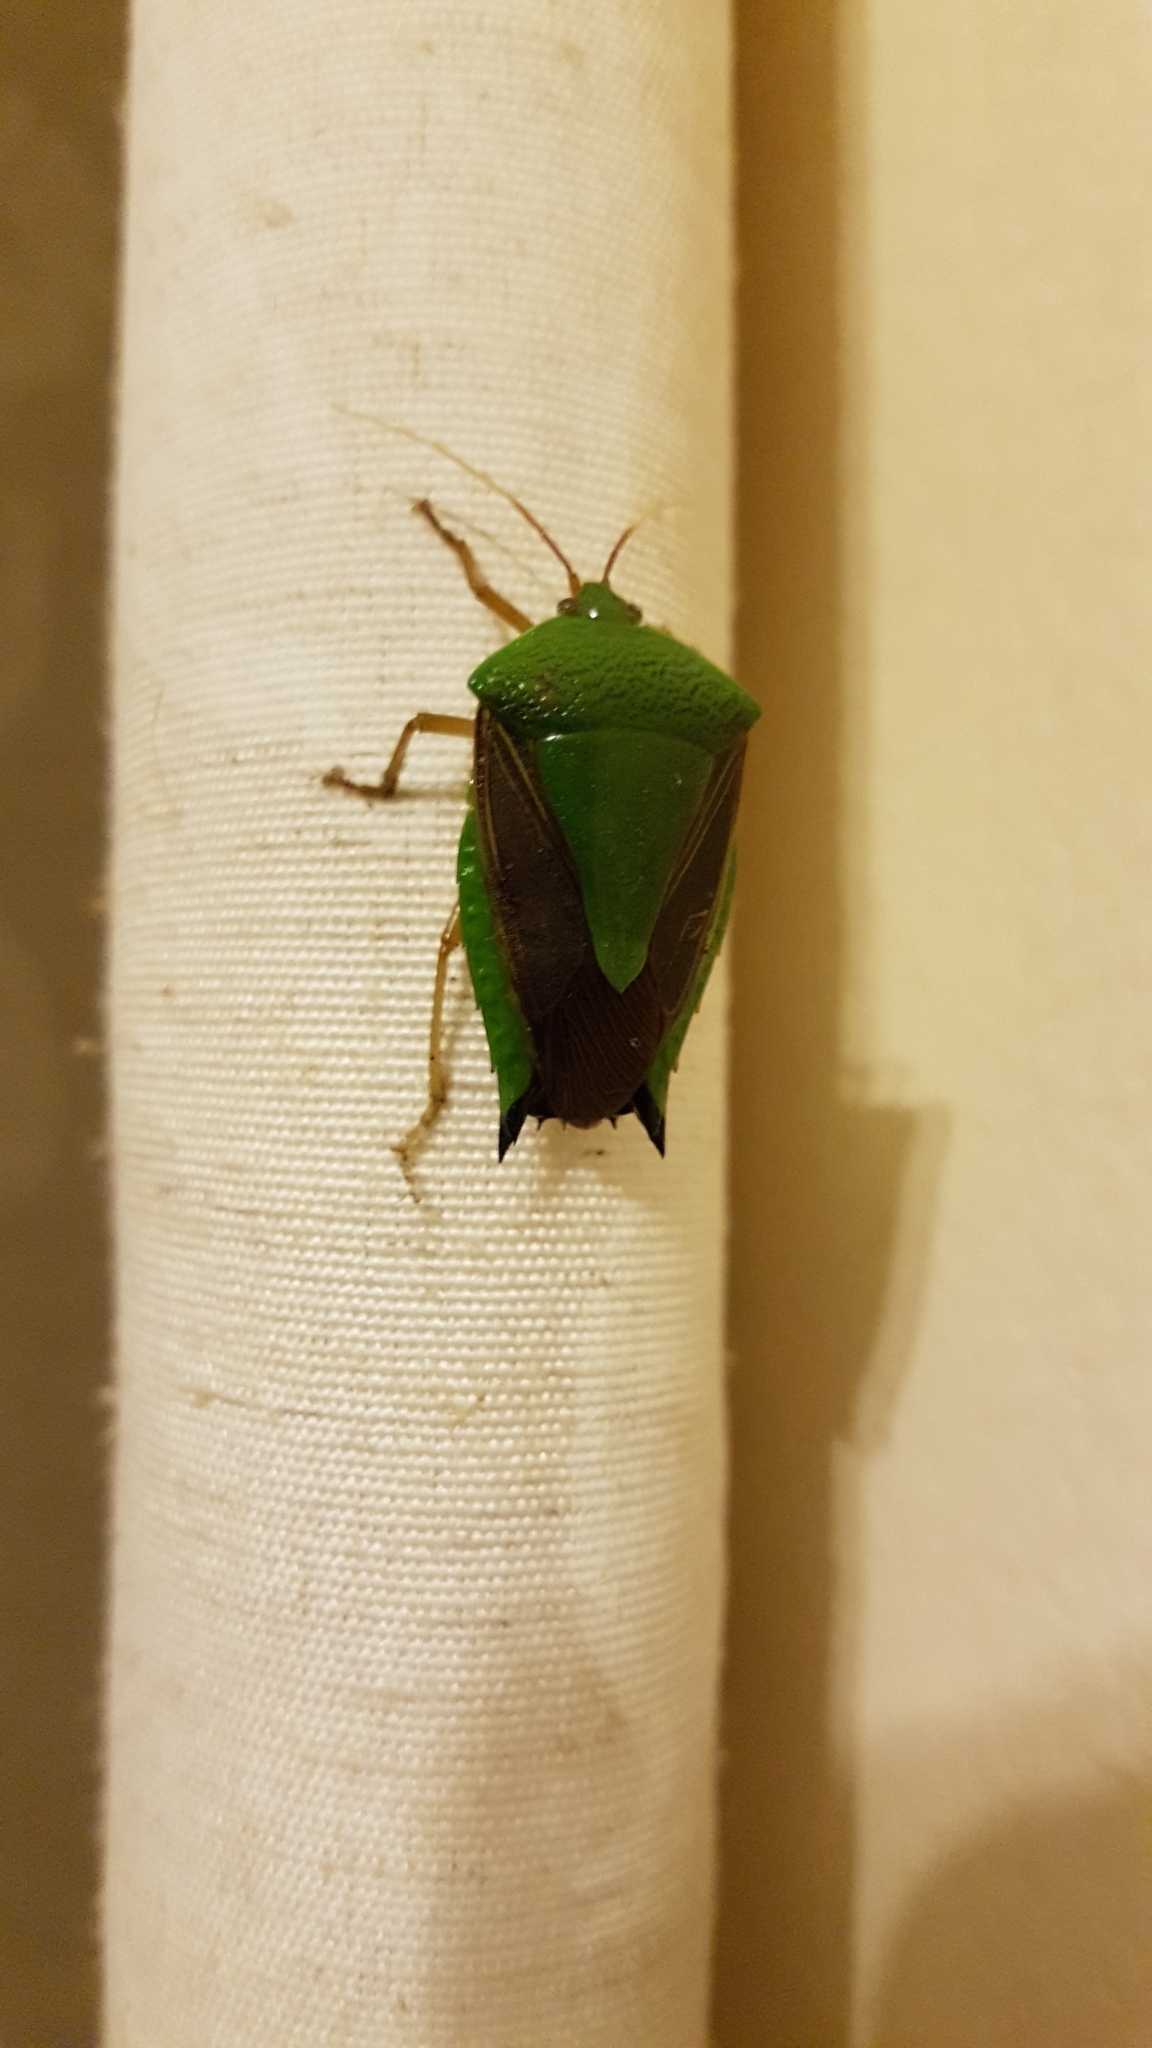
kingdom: Animalia
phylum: Arthropoda
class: Insecta
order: Hemiptera
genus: Pygoda
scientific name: Pygoda polita
